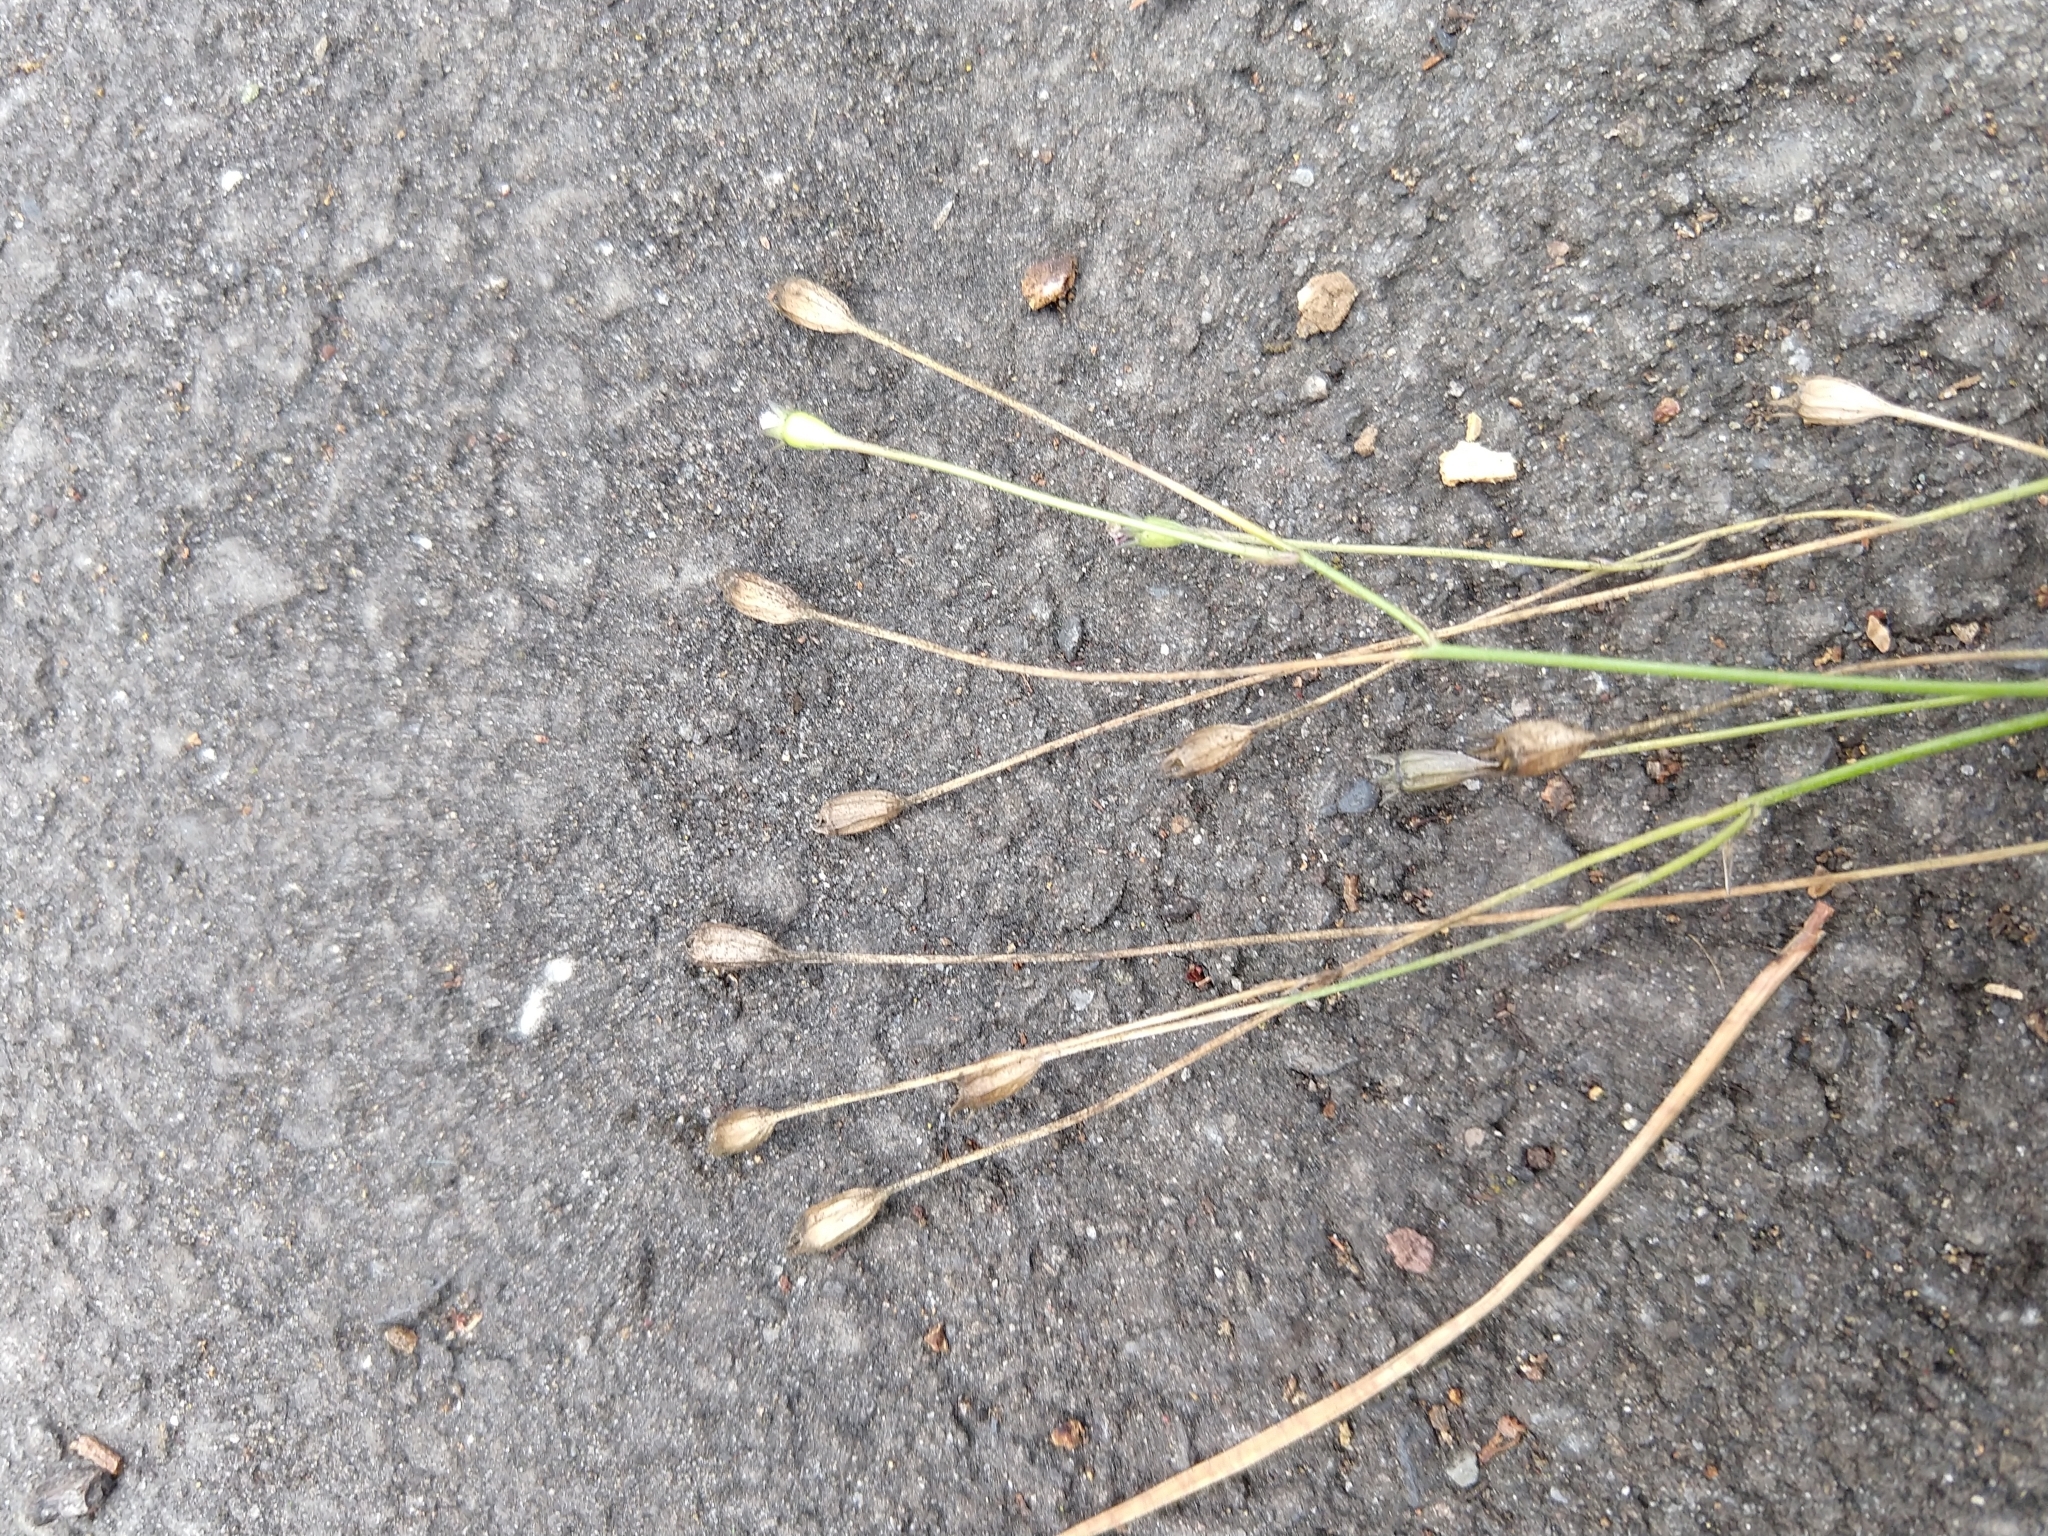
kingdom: Plantae
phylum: Tracheophyta
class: Magnoliopsida
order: Asterales
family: Campanulaceae
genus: Wahlenbergia
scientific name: Wahlenbergia marginata
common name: Southern rockbell
